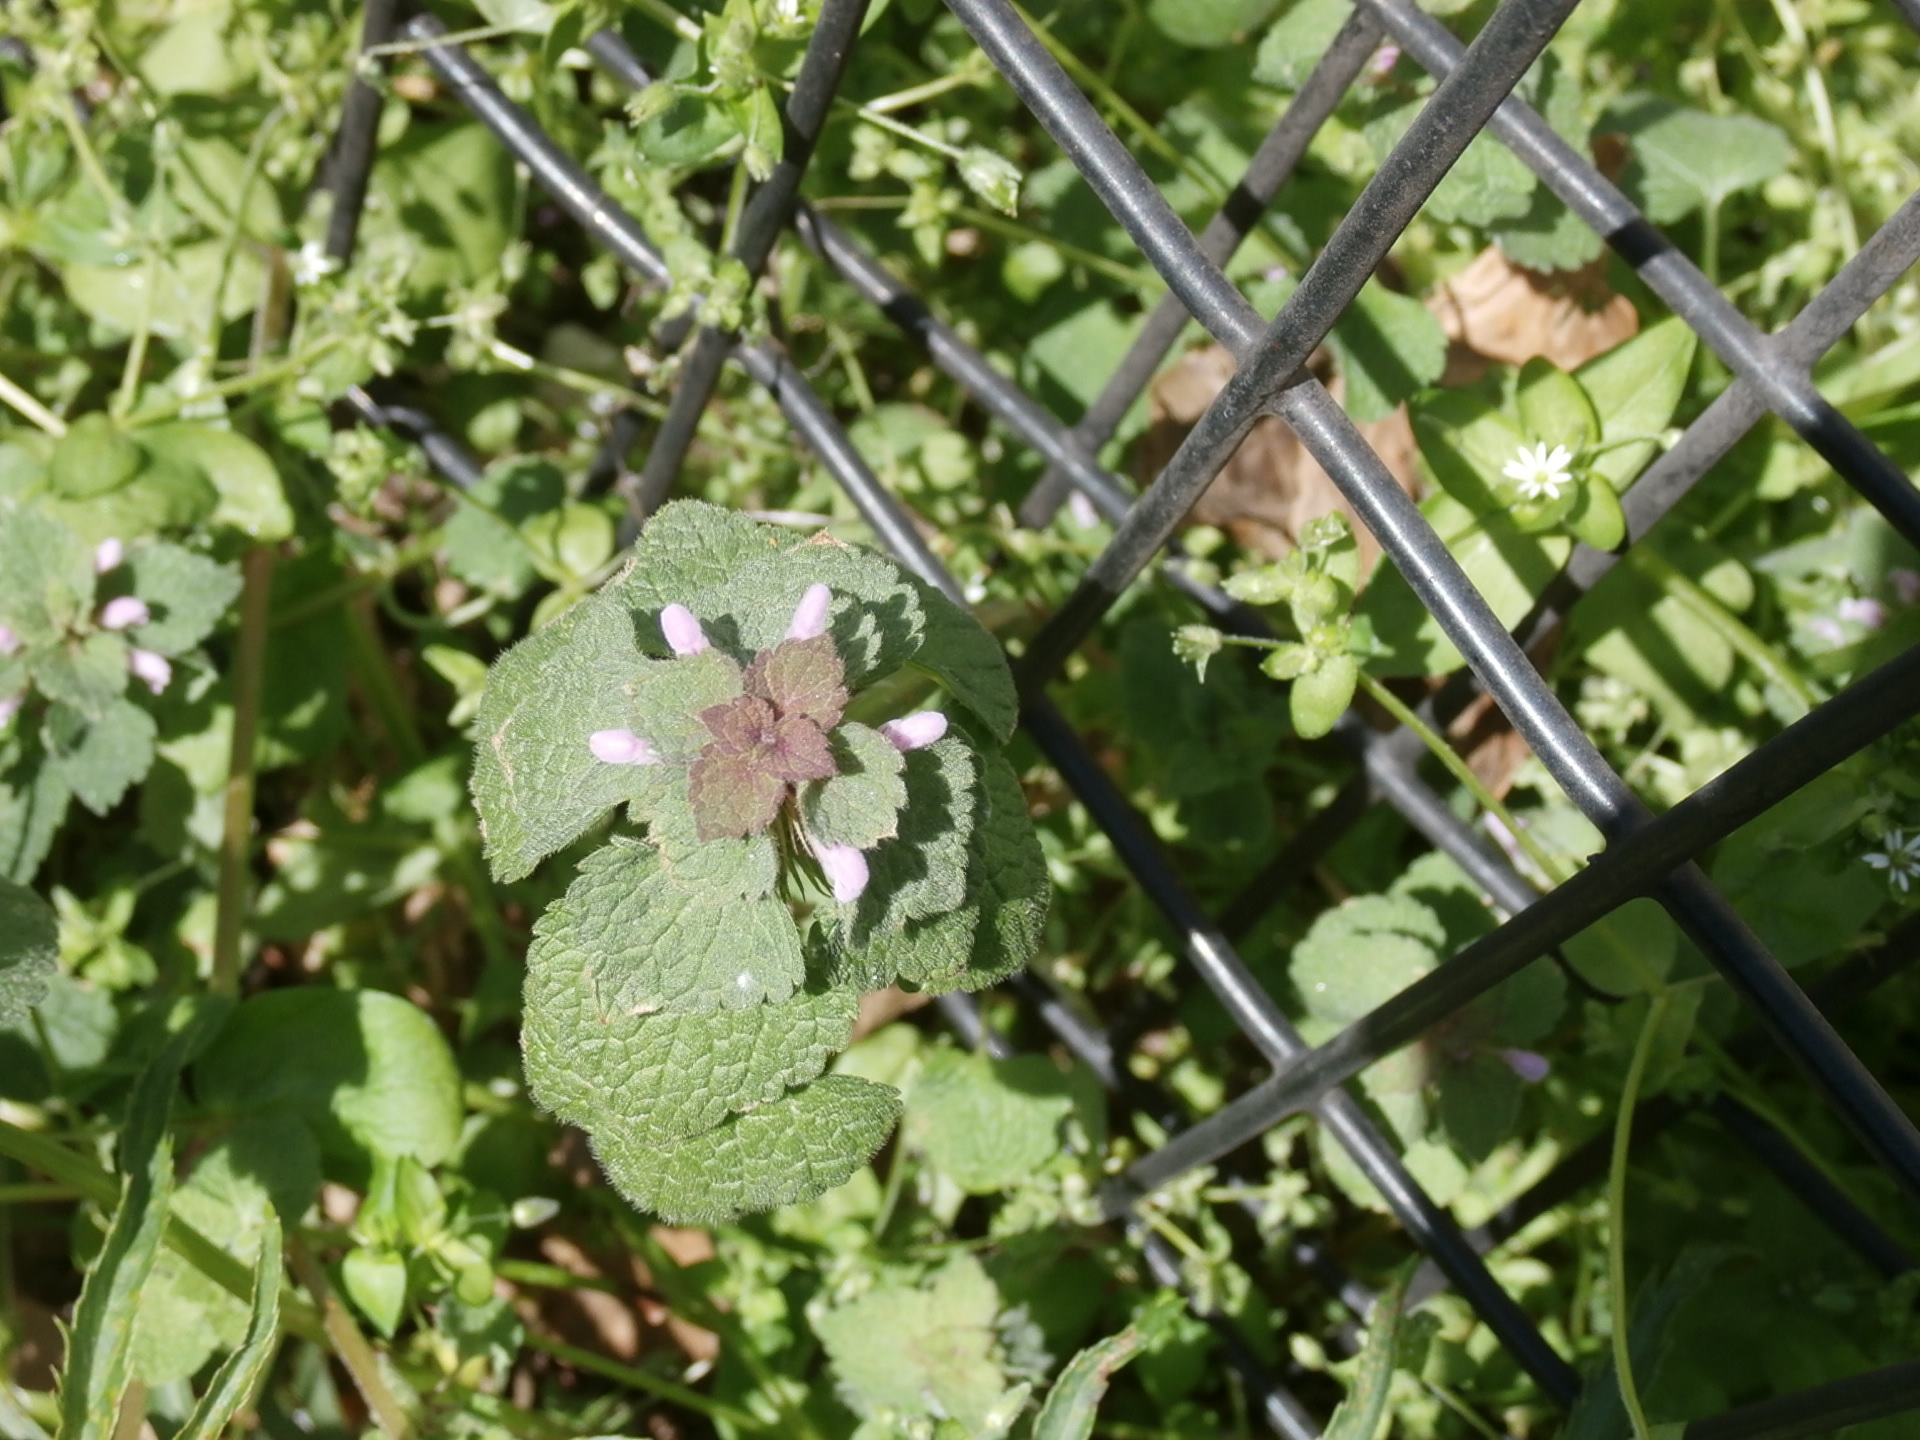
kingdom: Plantae
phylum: Tracheophyta
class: Magnoliopsida
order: Lamiales
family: Lamiaceae
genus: Lamium
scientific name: Lamium purpureum
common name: Red dead-nettle
